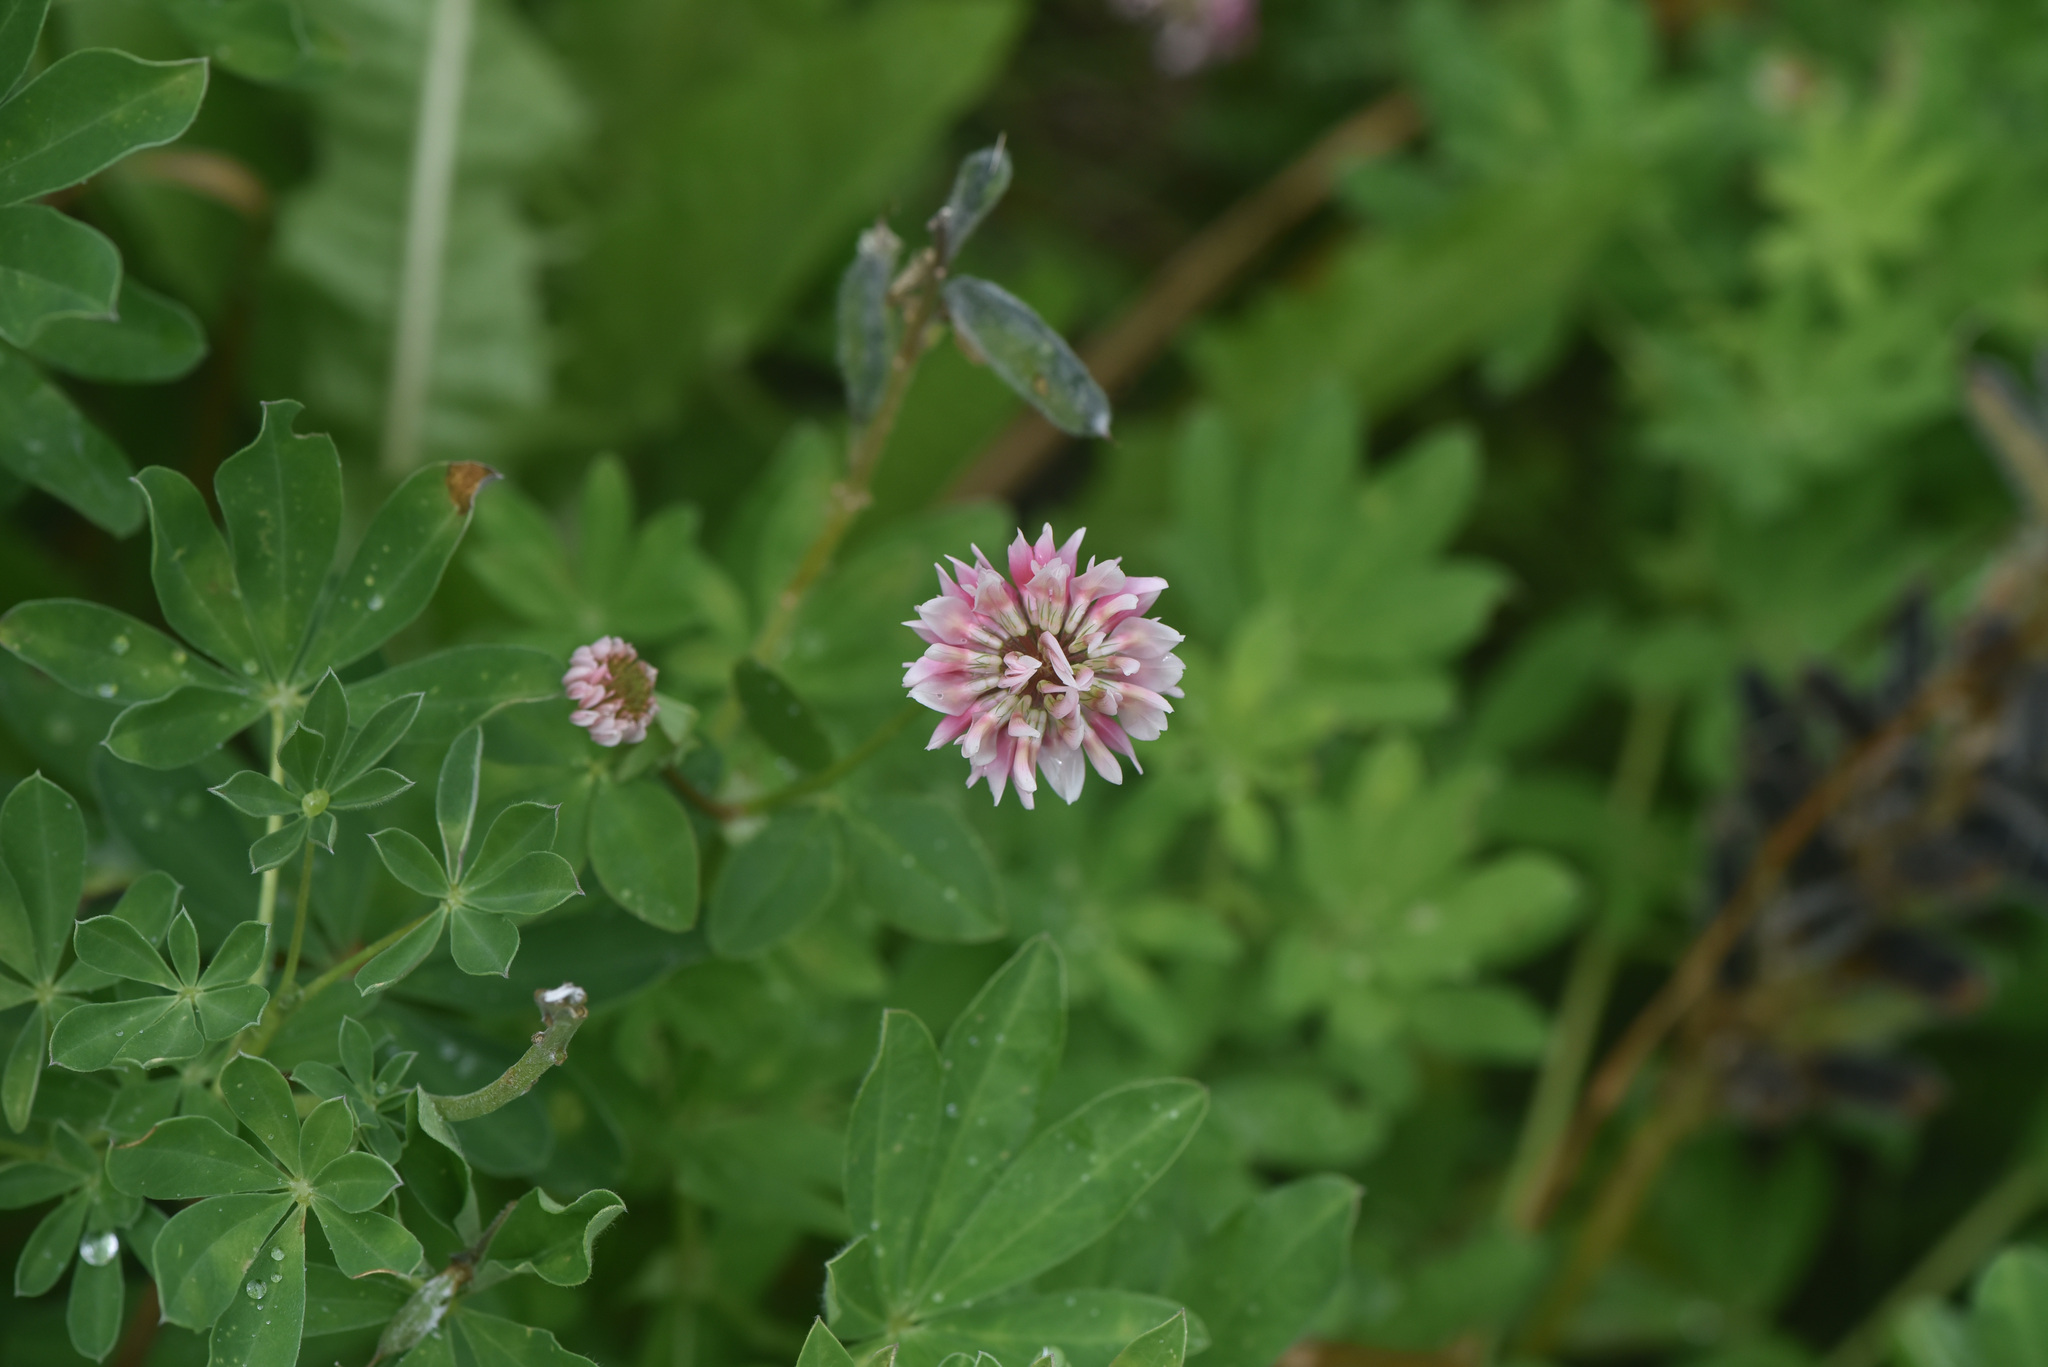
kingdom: Plantae
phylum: Tracheophyta
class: Magnoliopsida
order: Fabales
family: Fabaceae
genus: Trifolium
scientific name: Trifolium hybridum
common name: Alsike clover
